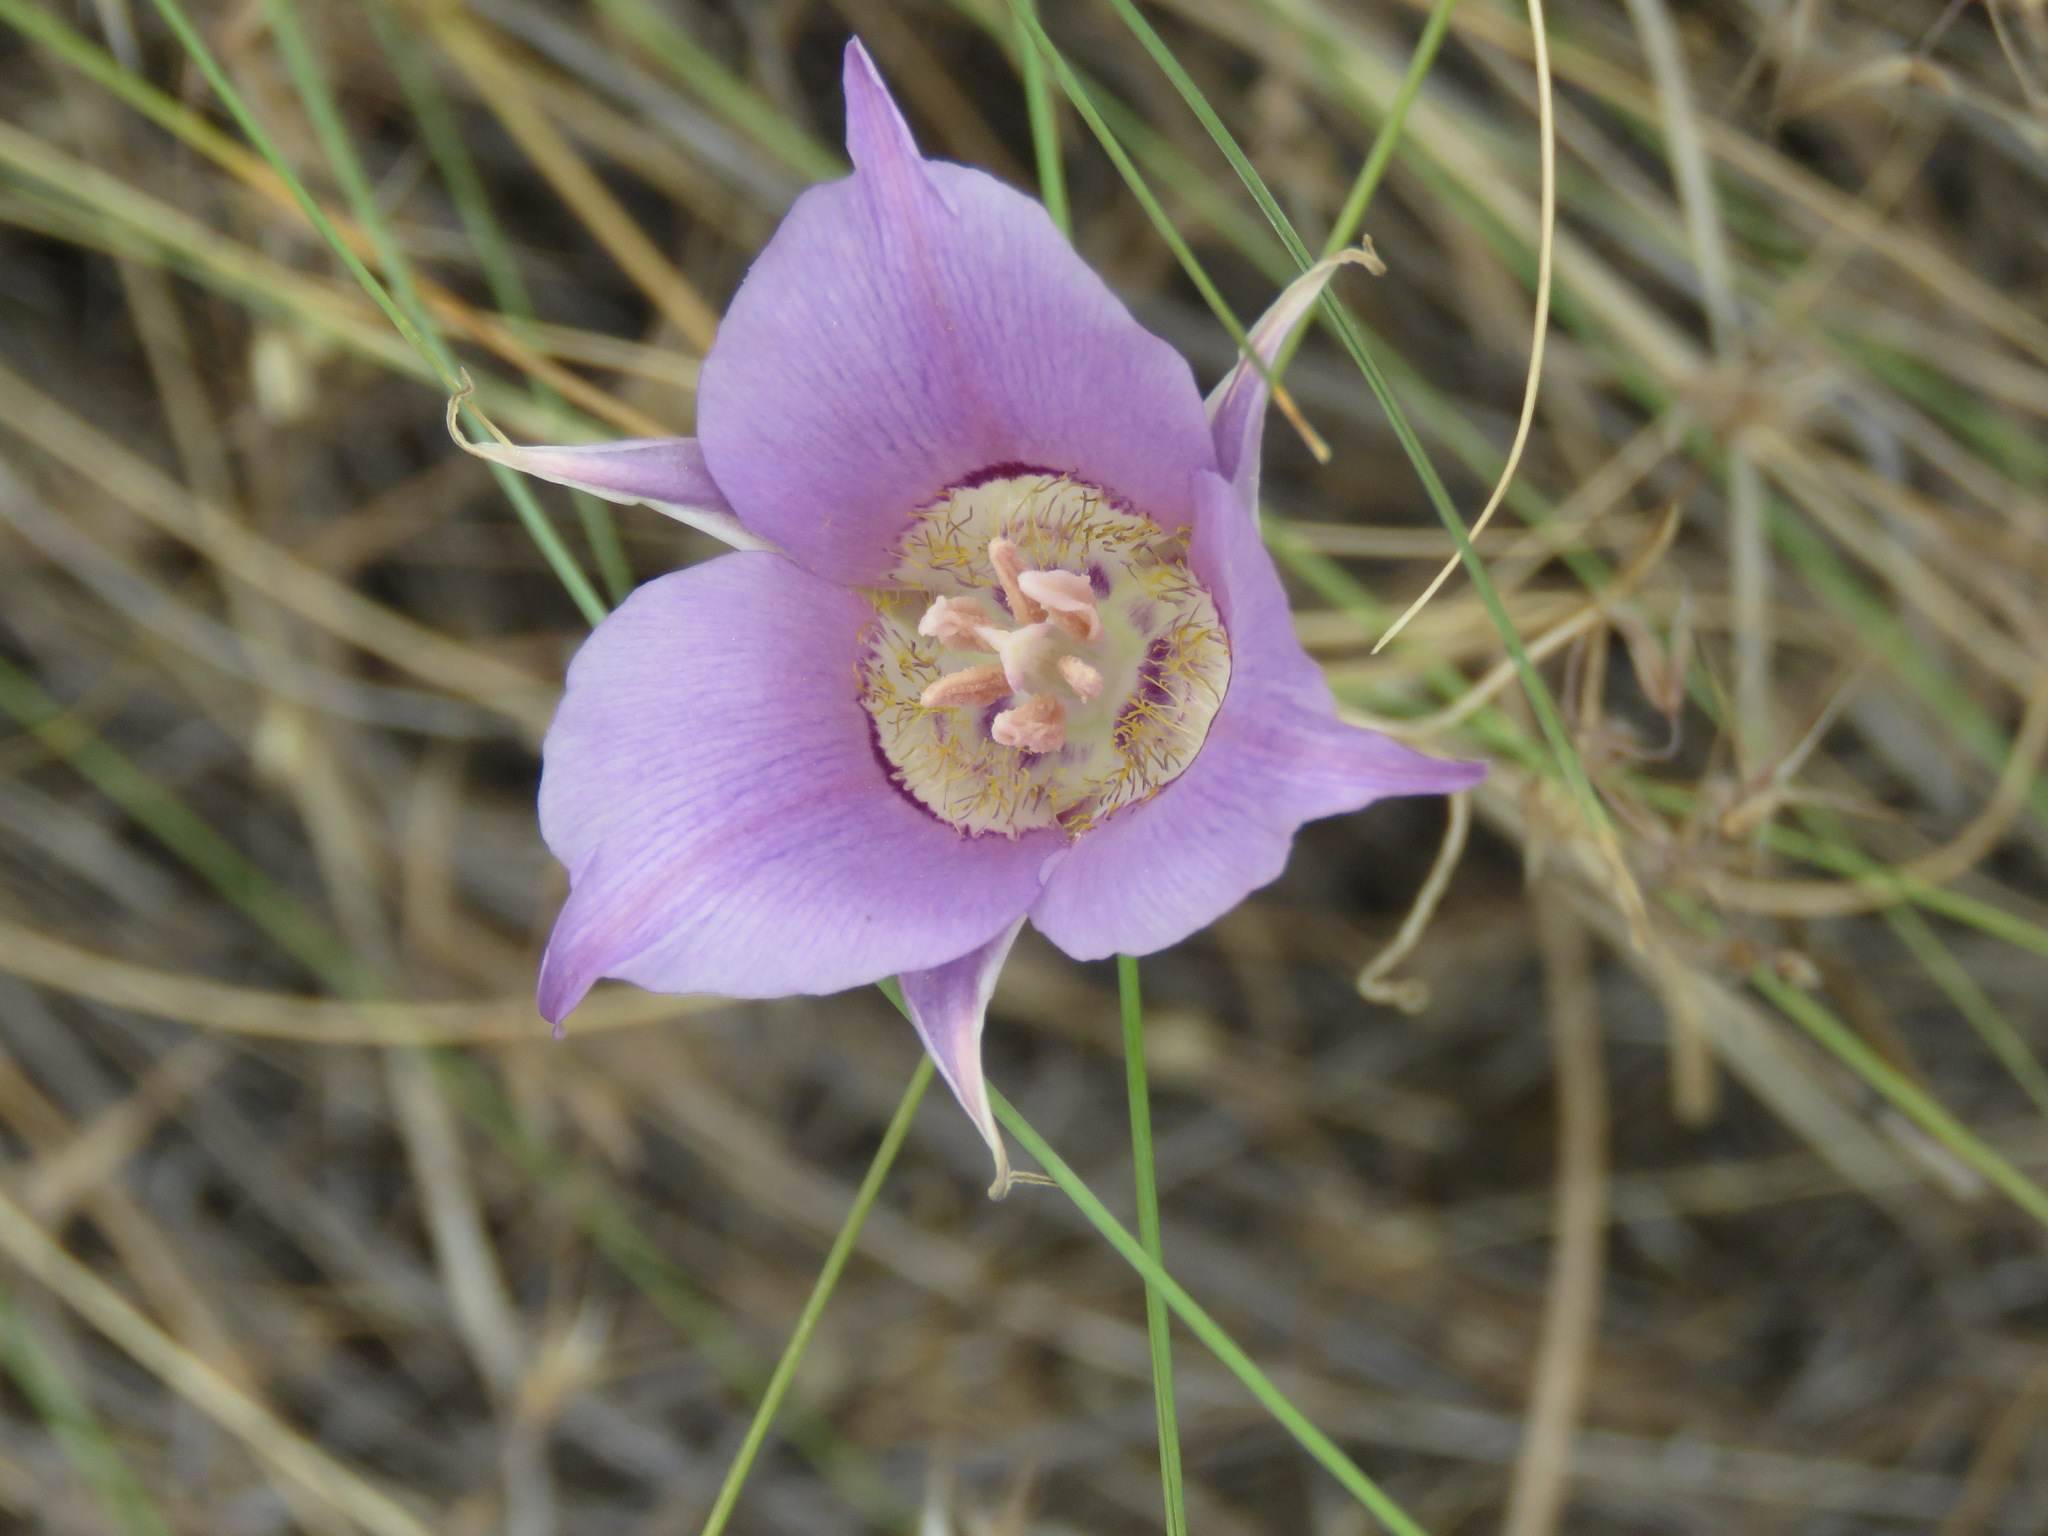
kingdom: Plantae
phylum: Tracheophyta
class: Liliopsida
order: Liliales
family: Liliaceae
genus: Calochortus
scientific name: Calochortus macrocarpus
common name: Green-band mariposa lily
